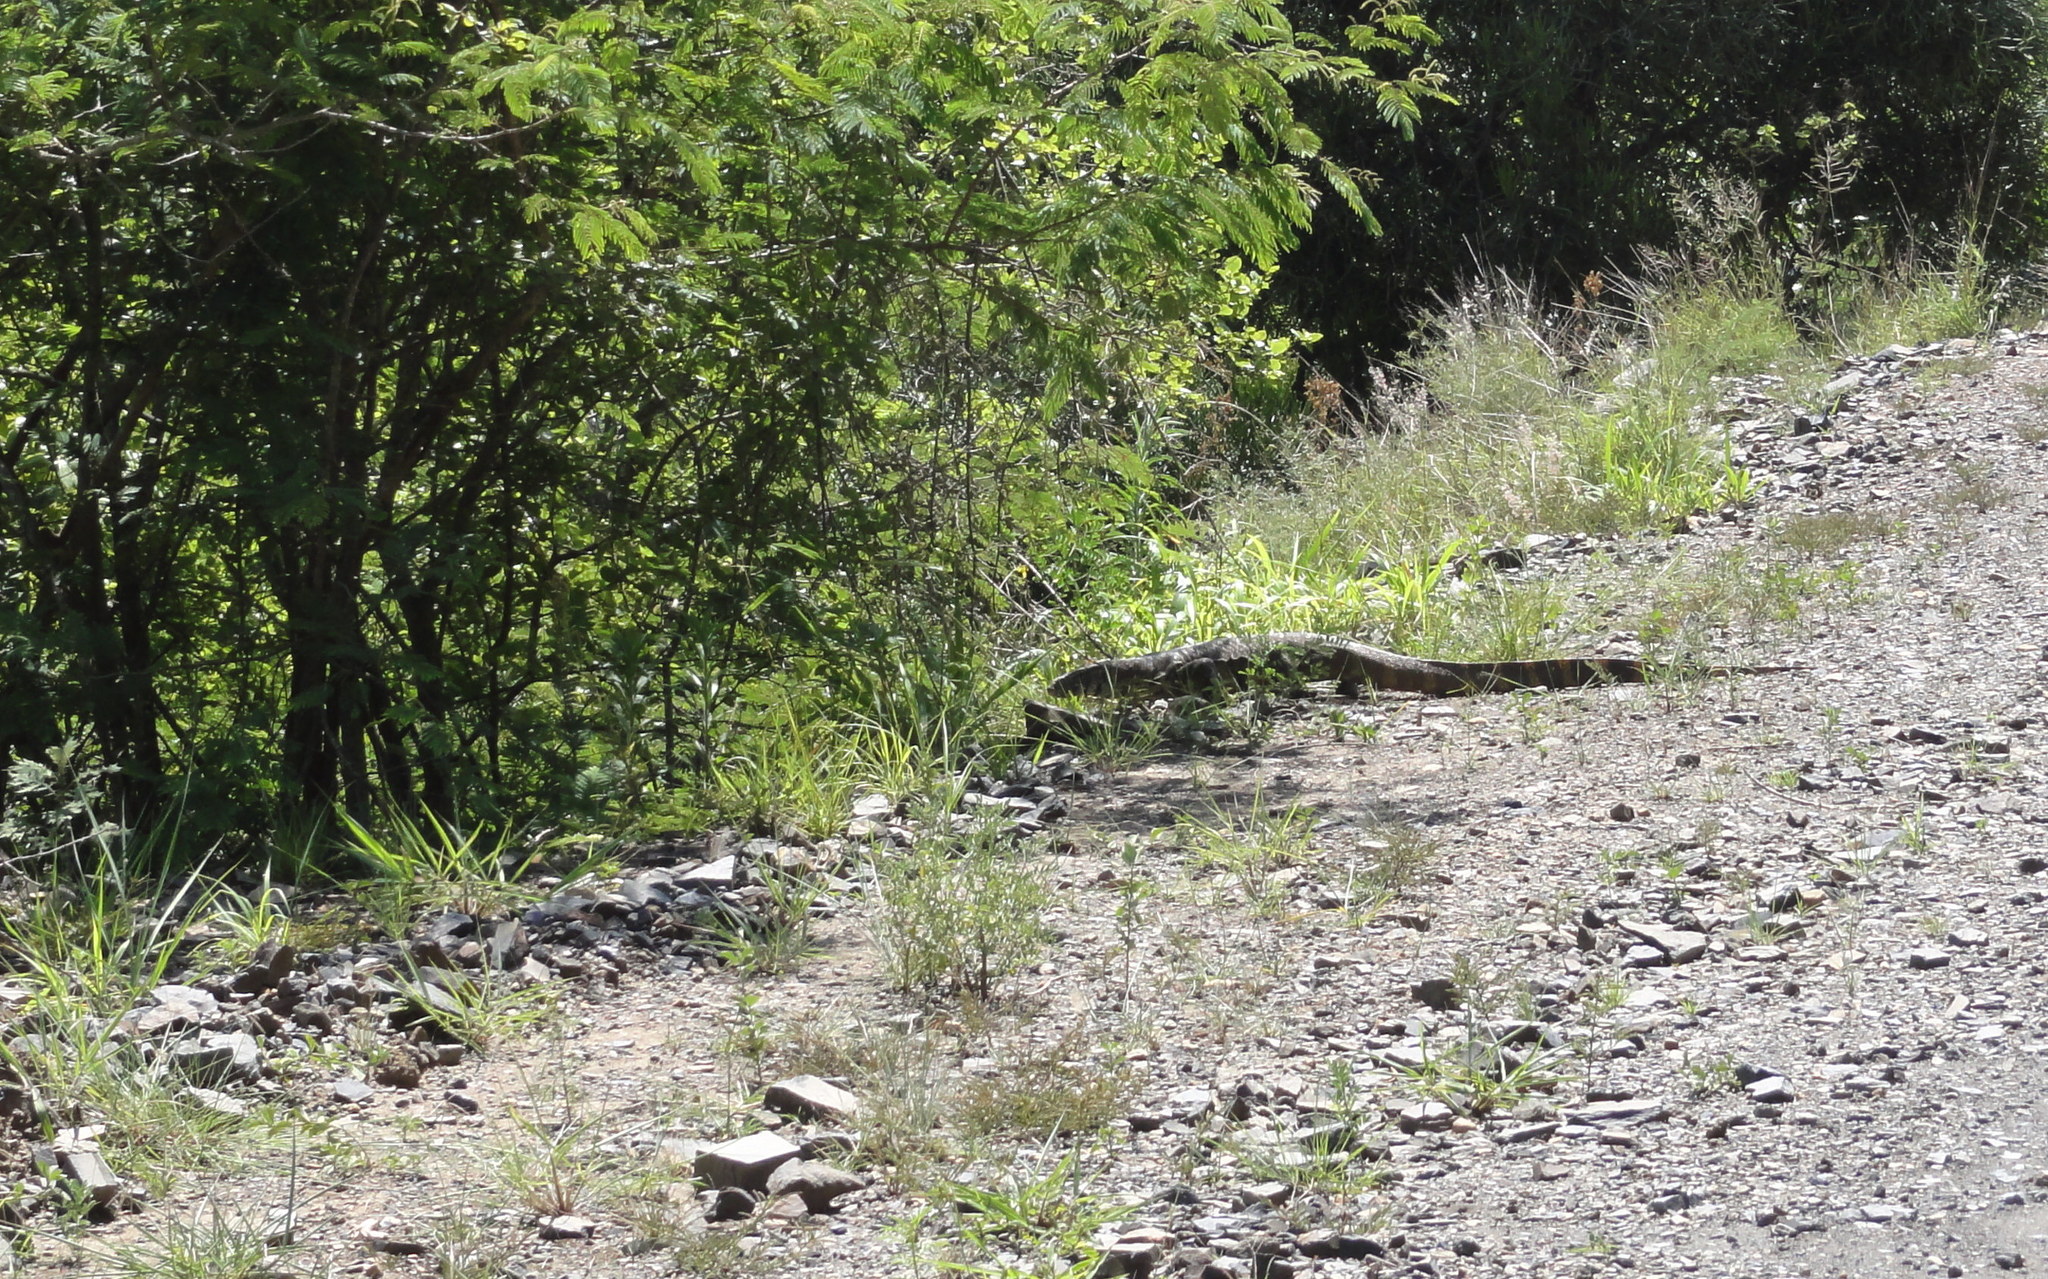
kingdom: Animalia
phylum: Chordata
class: Squamata
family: Varanidae
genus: Varanus
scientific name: Varanus niloticus
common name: Nile monitor
